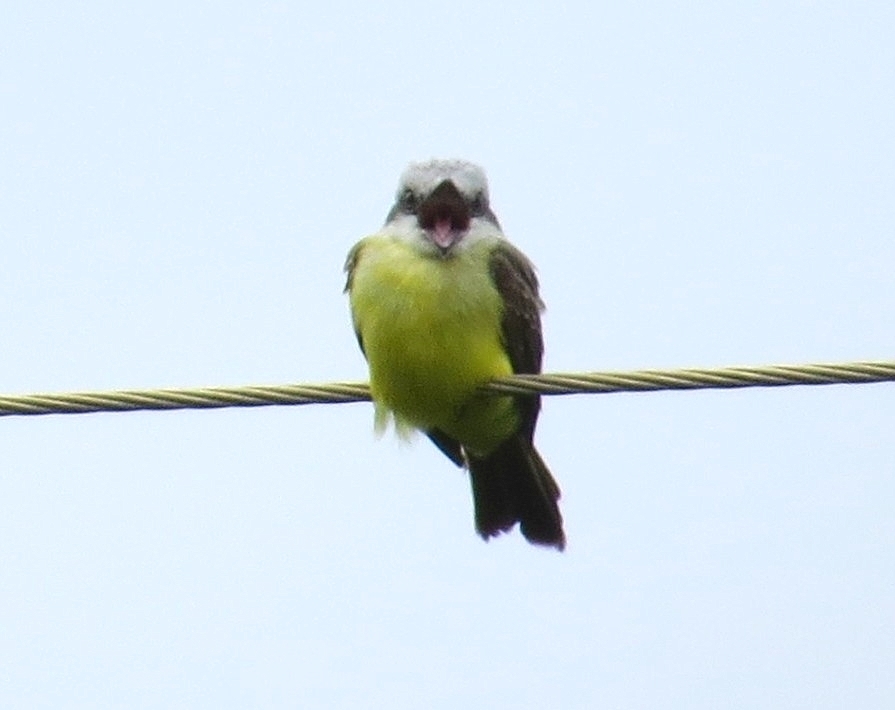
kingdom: Animalia
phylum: Chordata
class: Aves
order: Passeriformes
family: Tyrannidae
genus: Tyrannus
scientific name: Tyrannus melancholicus
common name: Tropical kingbird
